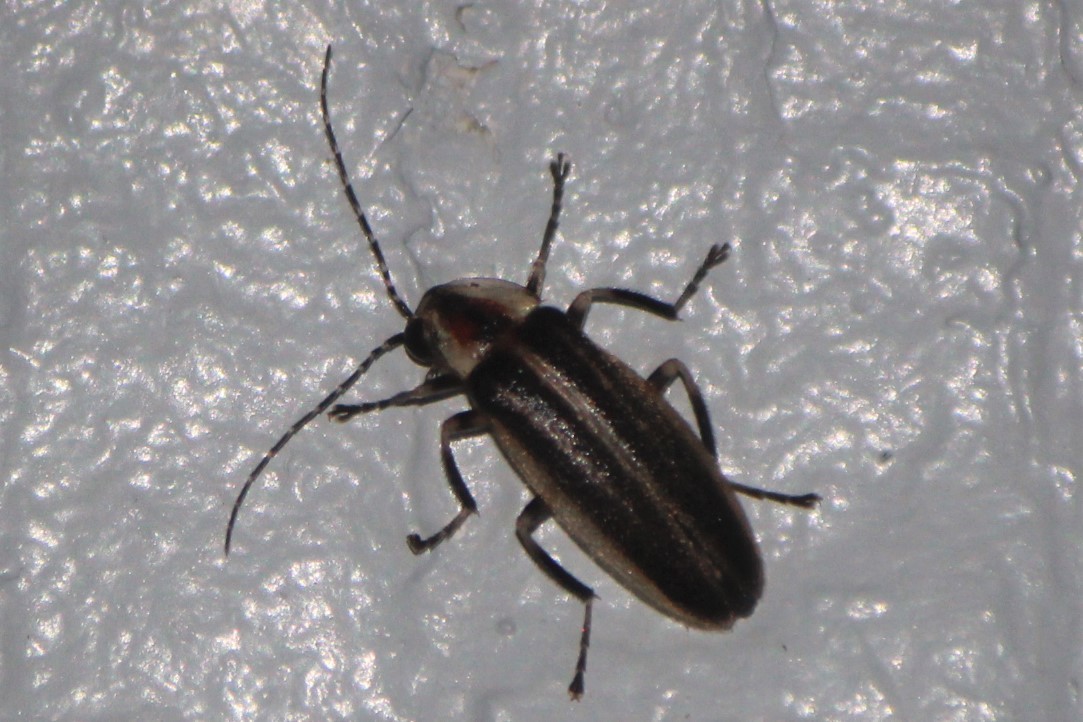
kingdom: Animalia
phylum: Arthropoda
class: Insecta
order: Coleoptera
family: Lampyridae
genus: Photuris
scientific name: Photuris
